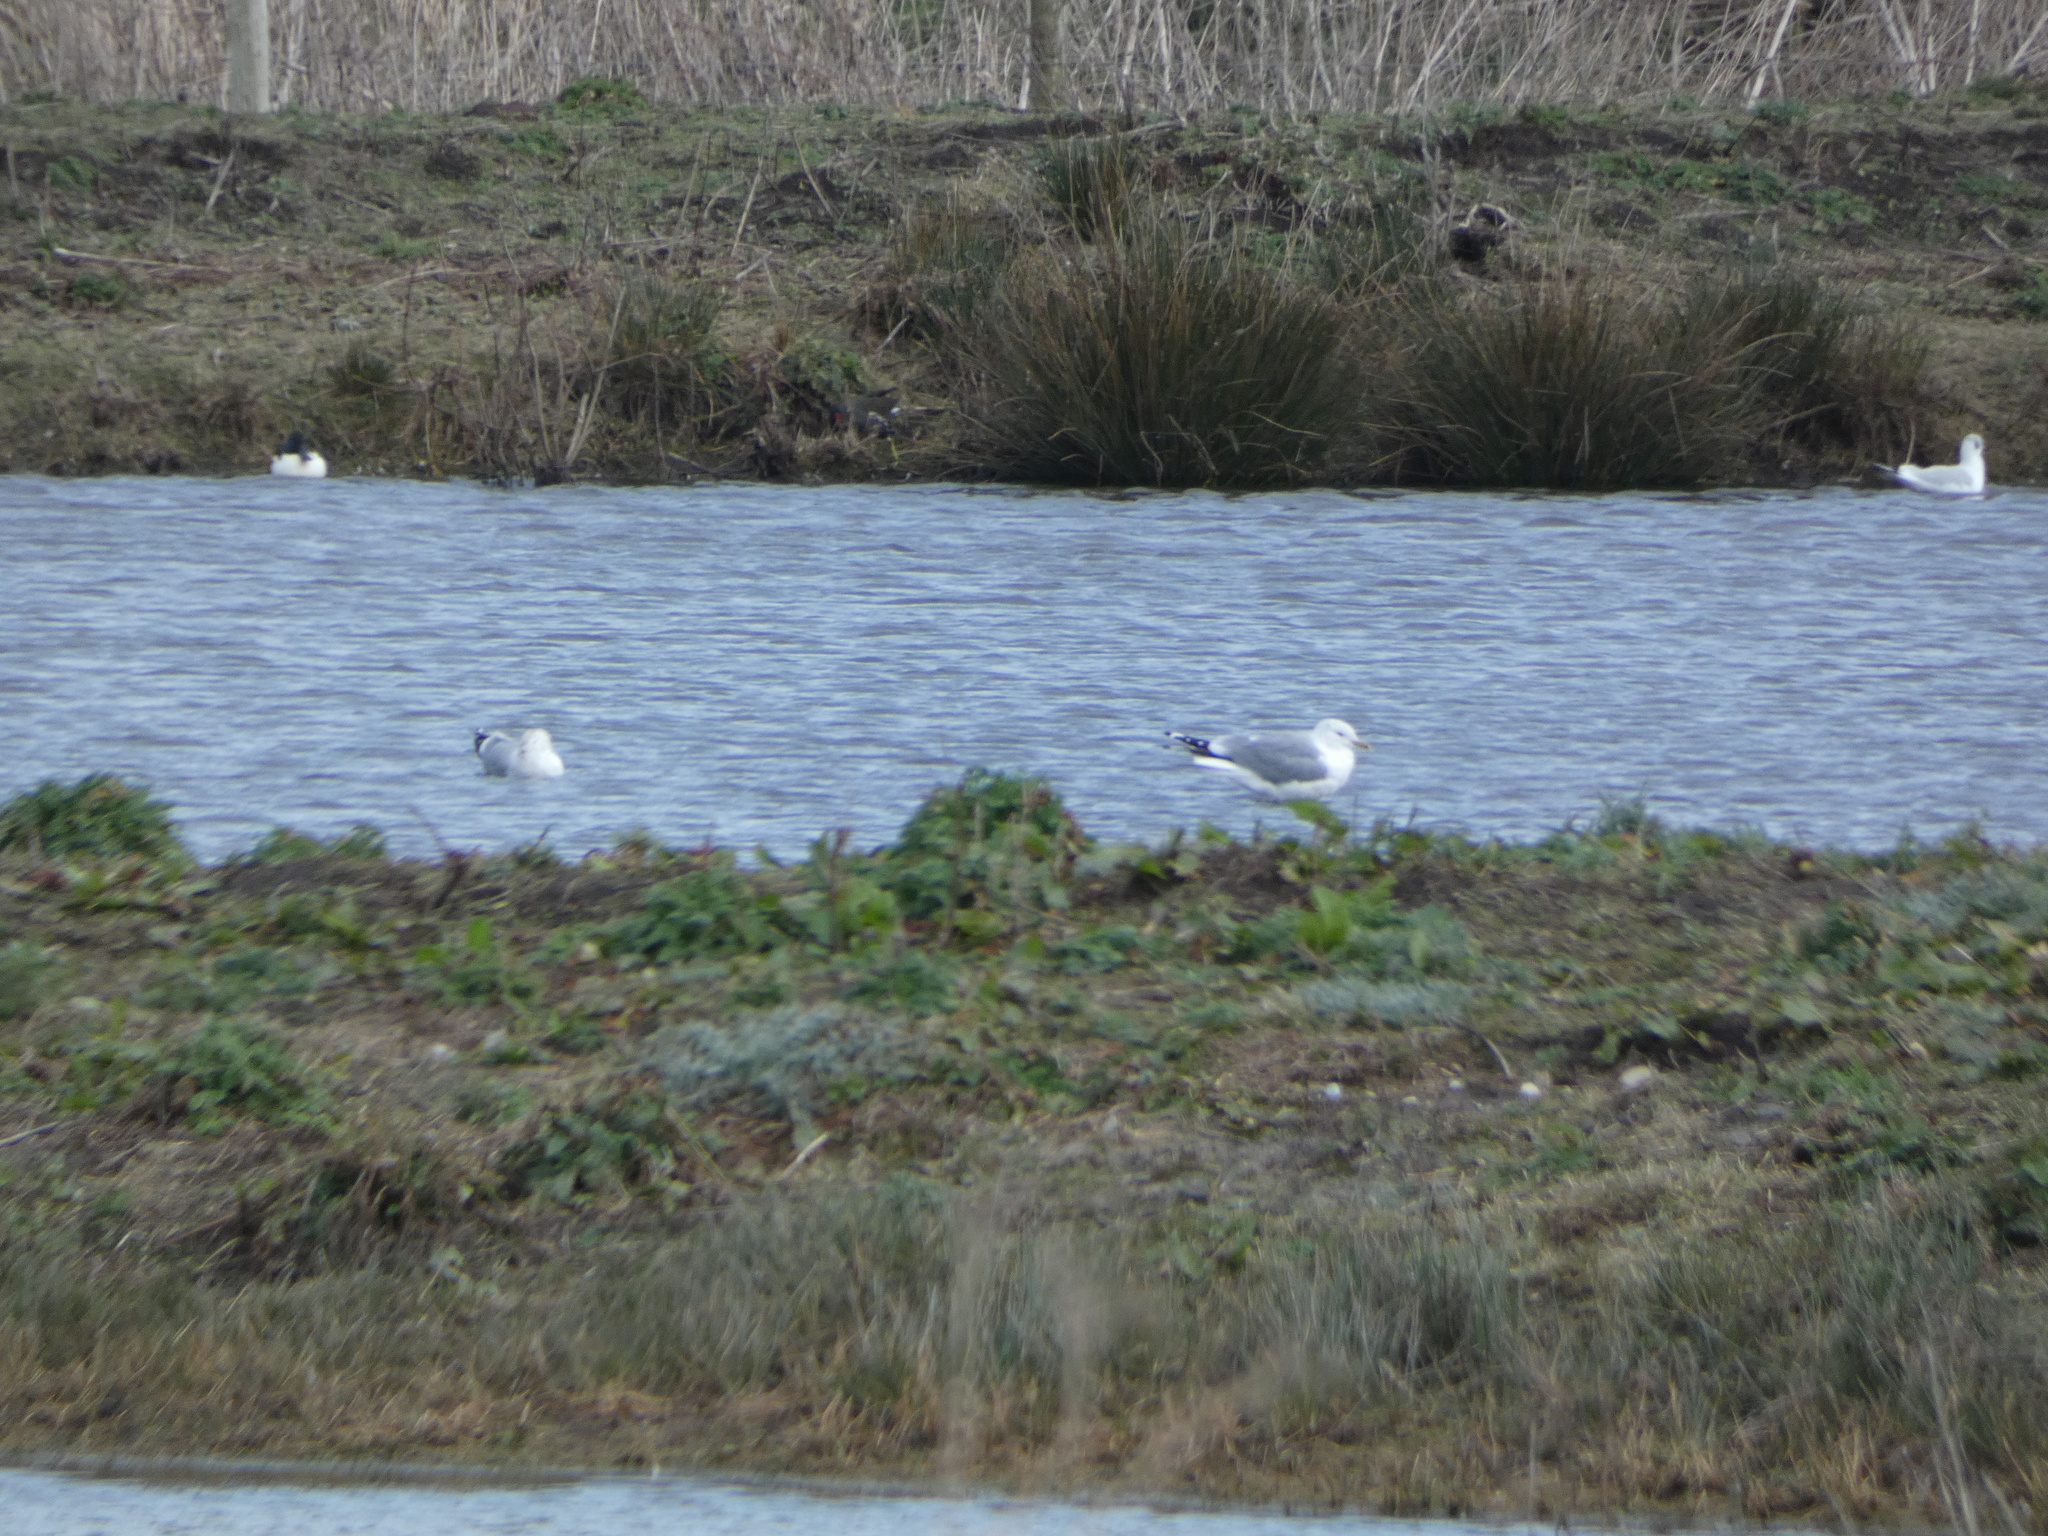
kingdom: Animalia
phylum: Chordata
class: Aves
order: Charadriiformes
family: Laridae
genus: Larus
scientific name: Larus canus
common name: Mew gull
